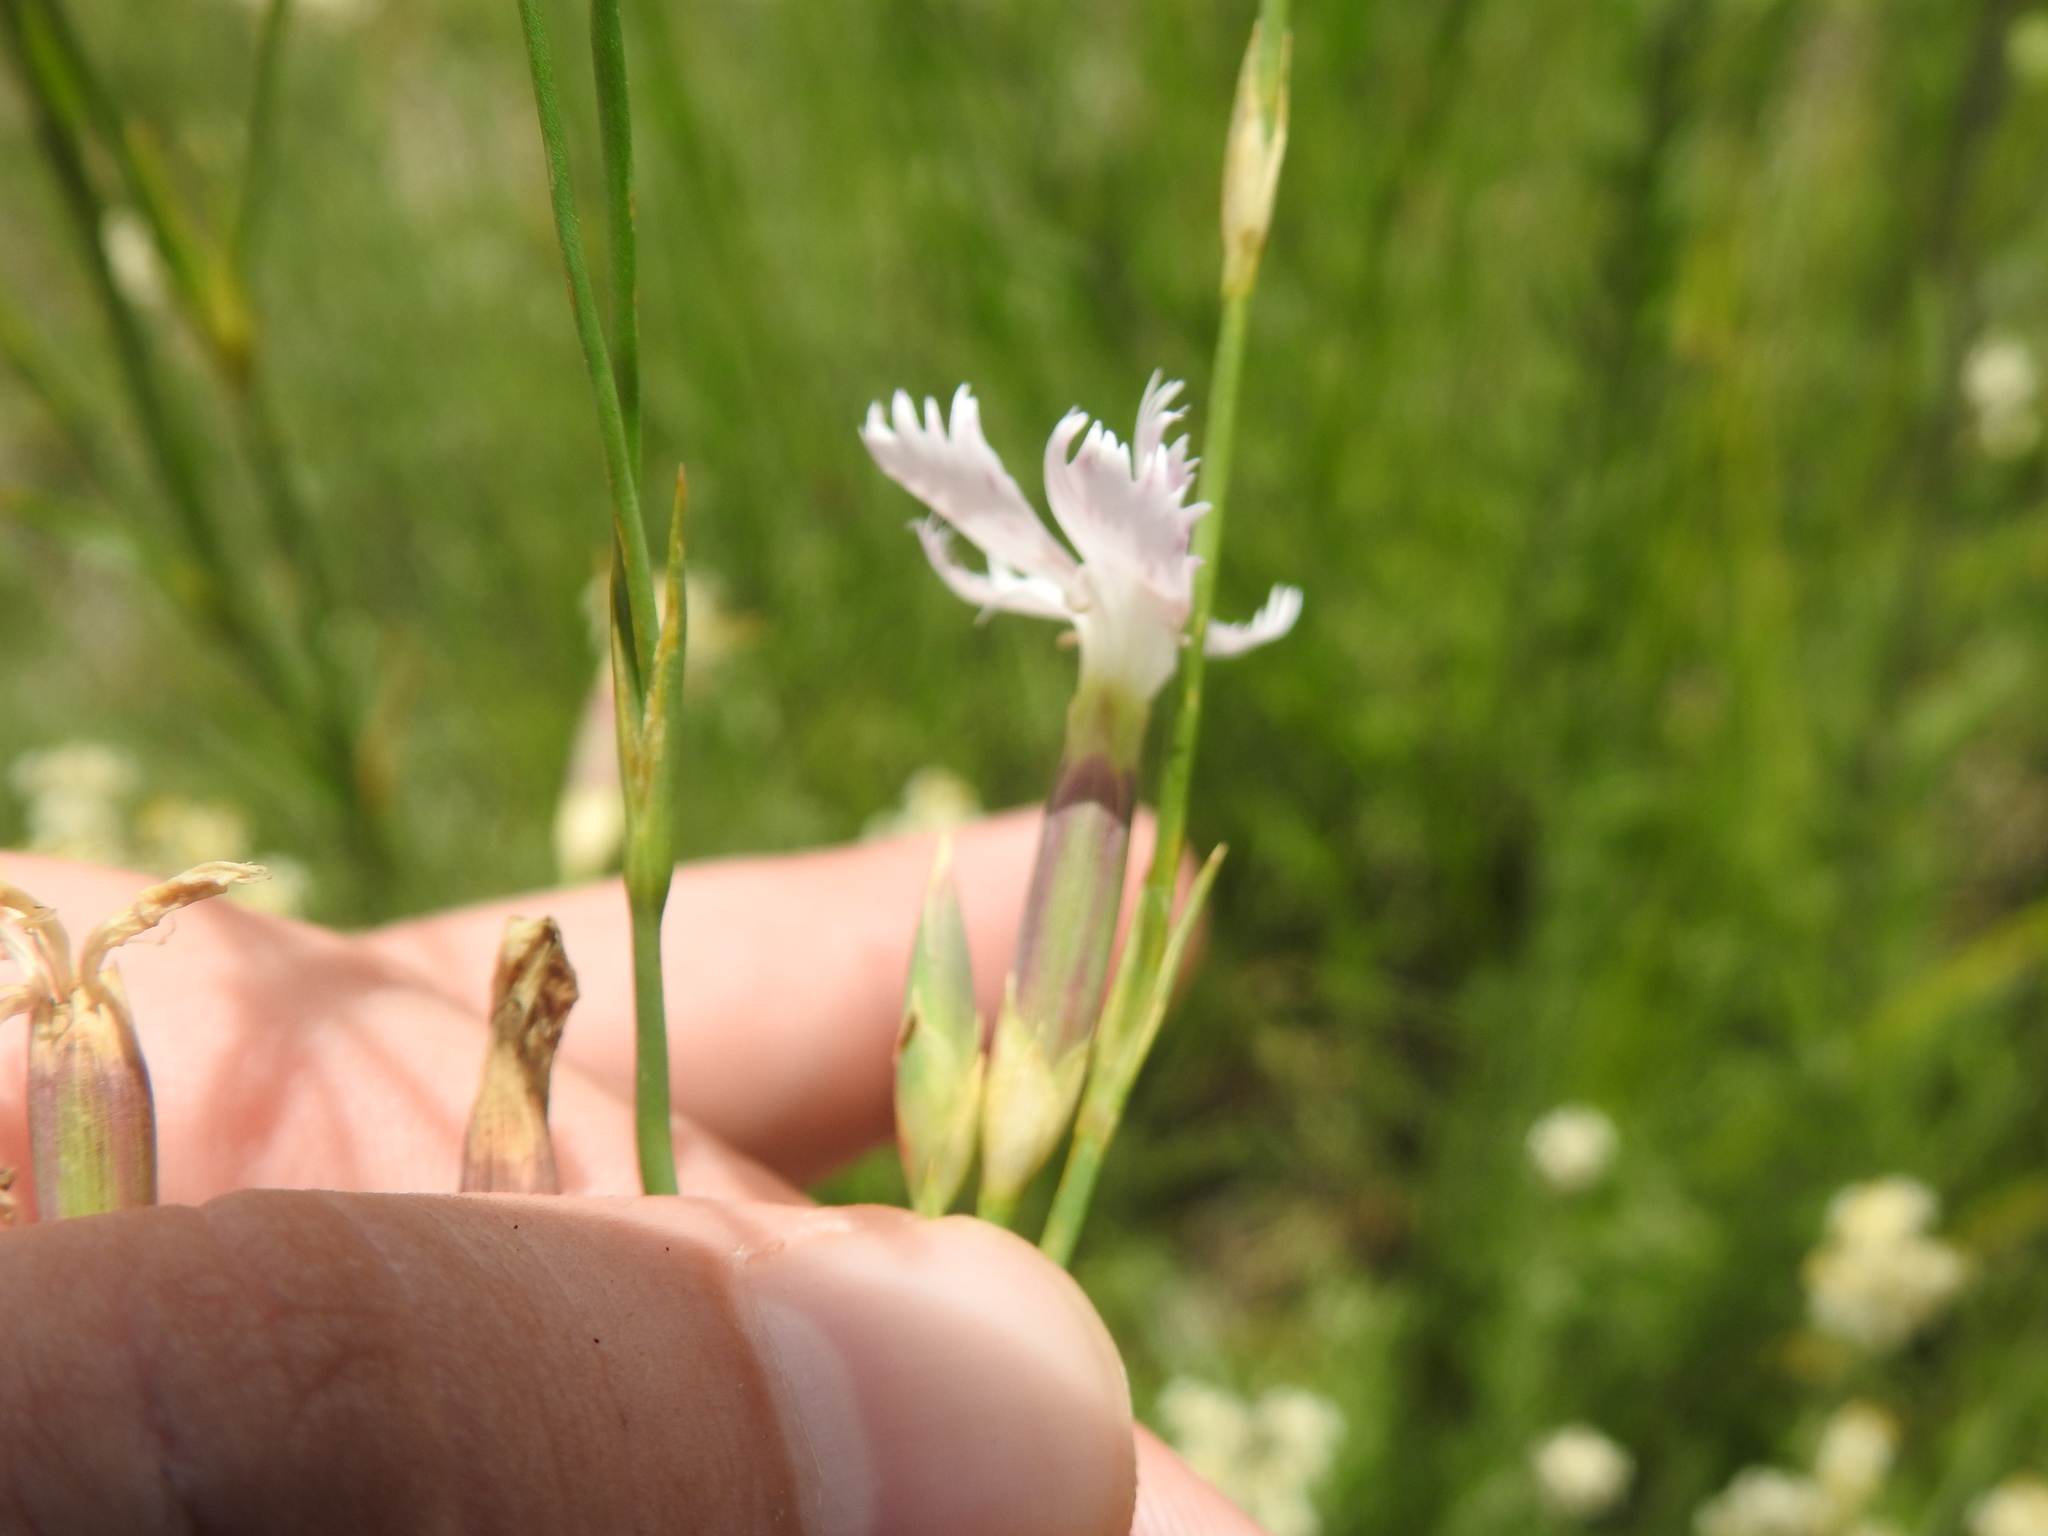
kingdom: Plantae
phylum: Tracheophyta
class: Magnoliopsida
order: Caryophyllales
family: Caryophyllaceae
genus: Dianthus
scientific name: Dianthus mooiensis
